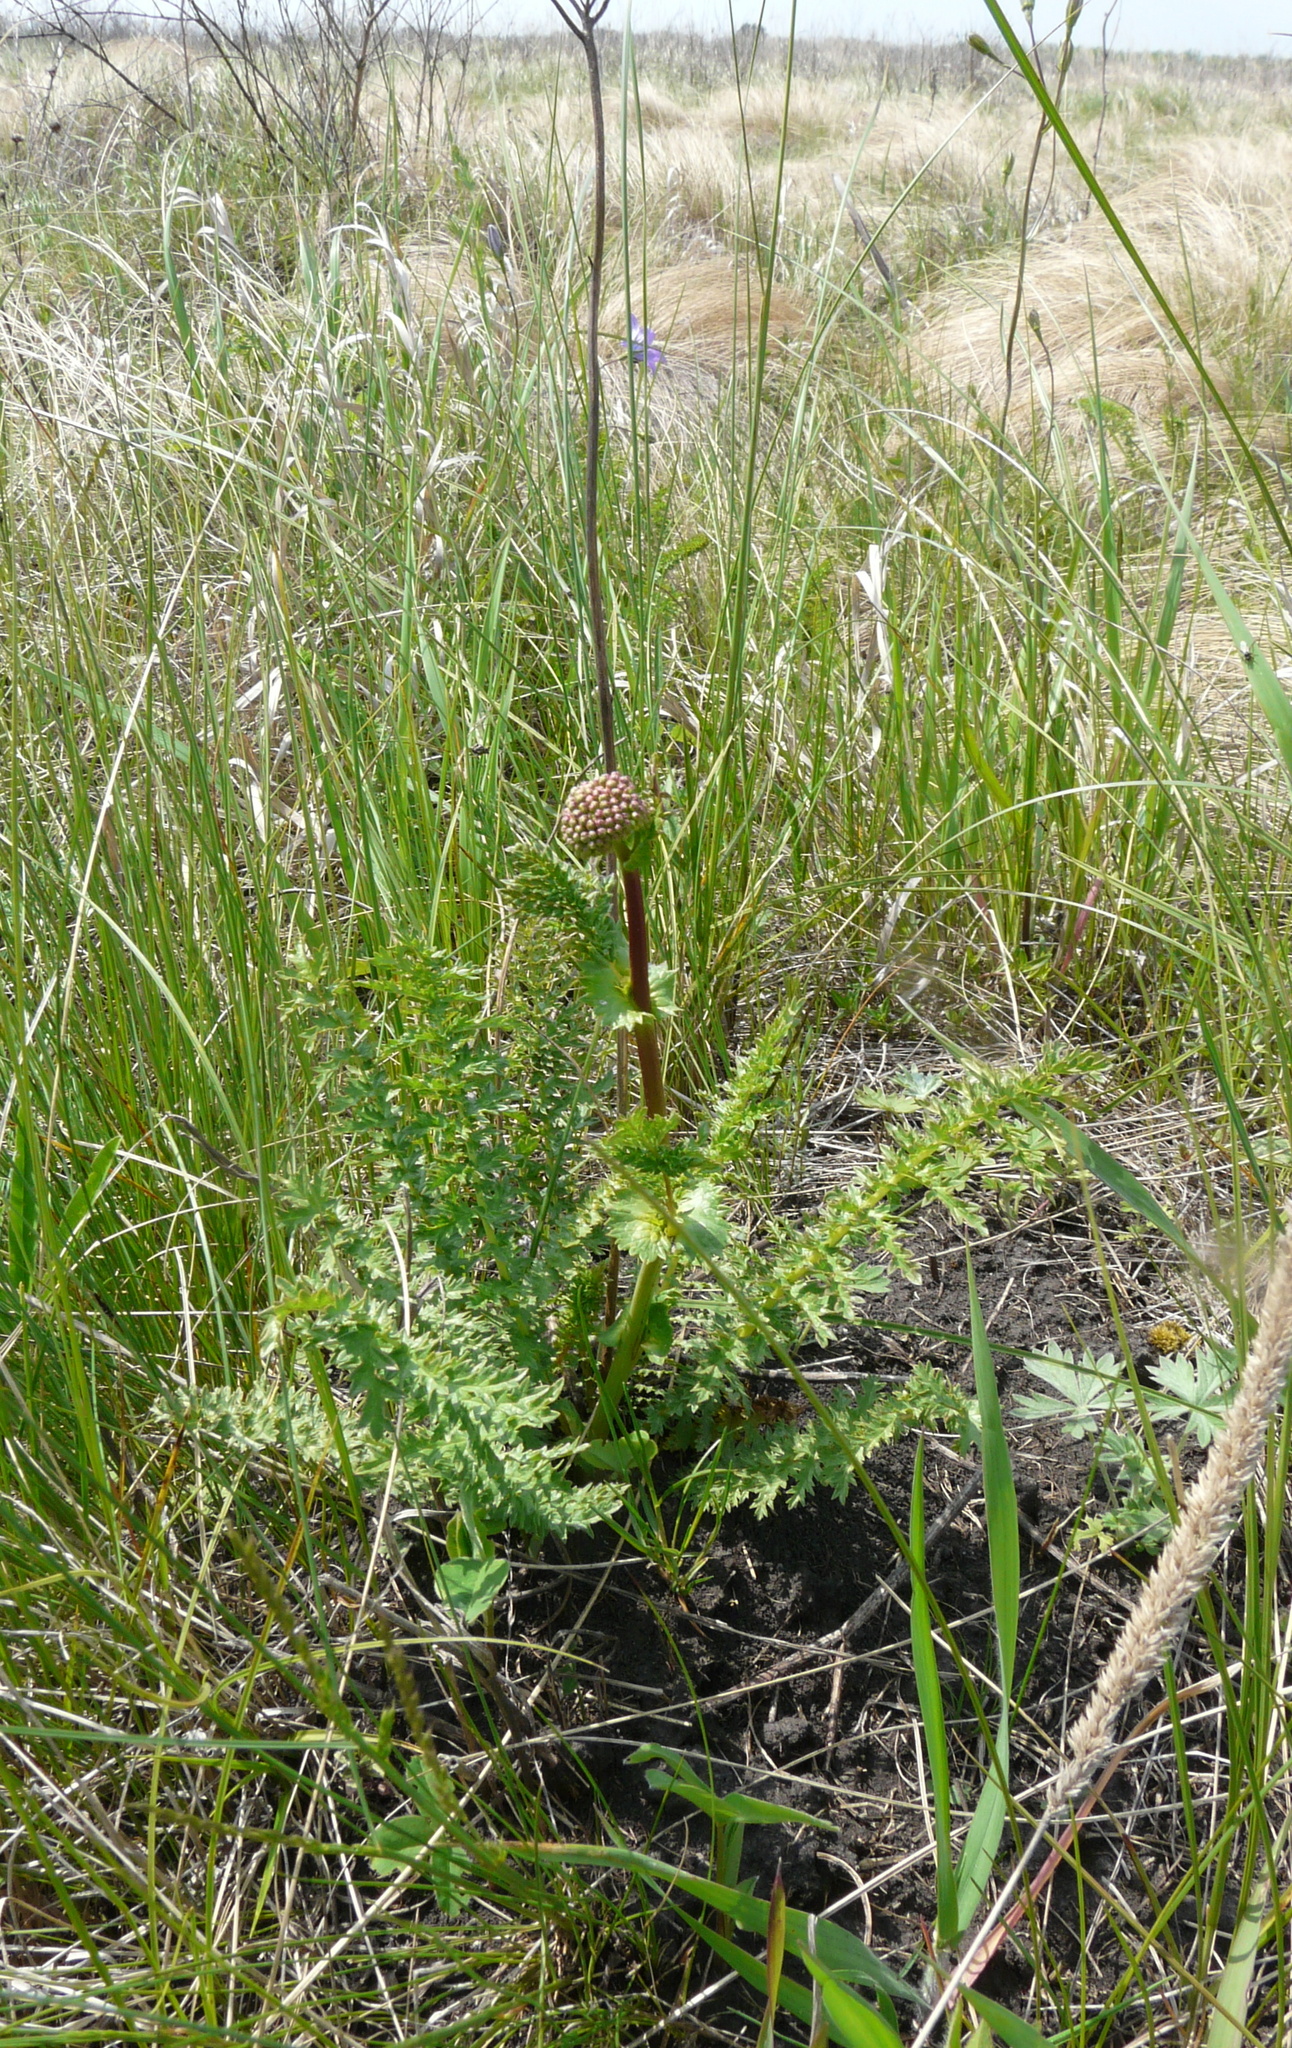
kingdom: Plantae
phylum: Tracheophyta
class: Magnoliopsida
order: Rosales
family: Rosaceae
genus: Filipendula
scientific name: Filipendula vulgaris
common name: Dropwort
